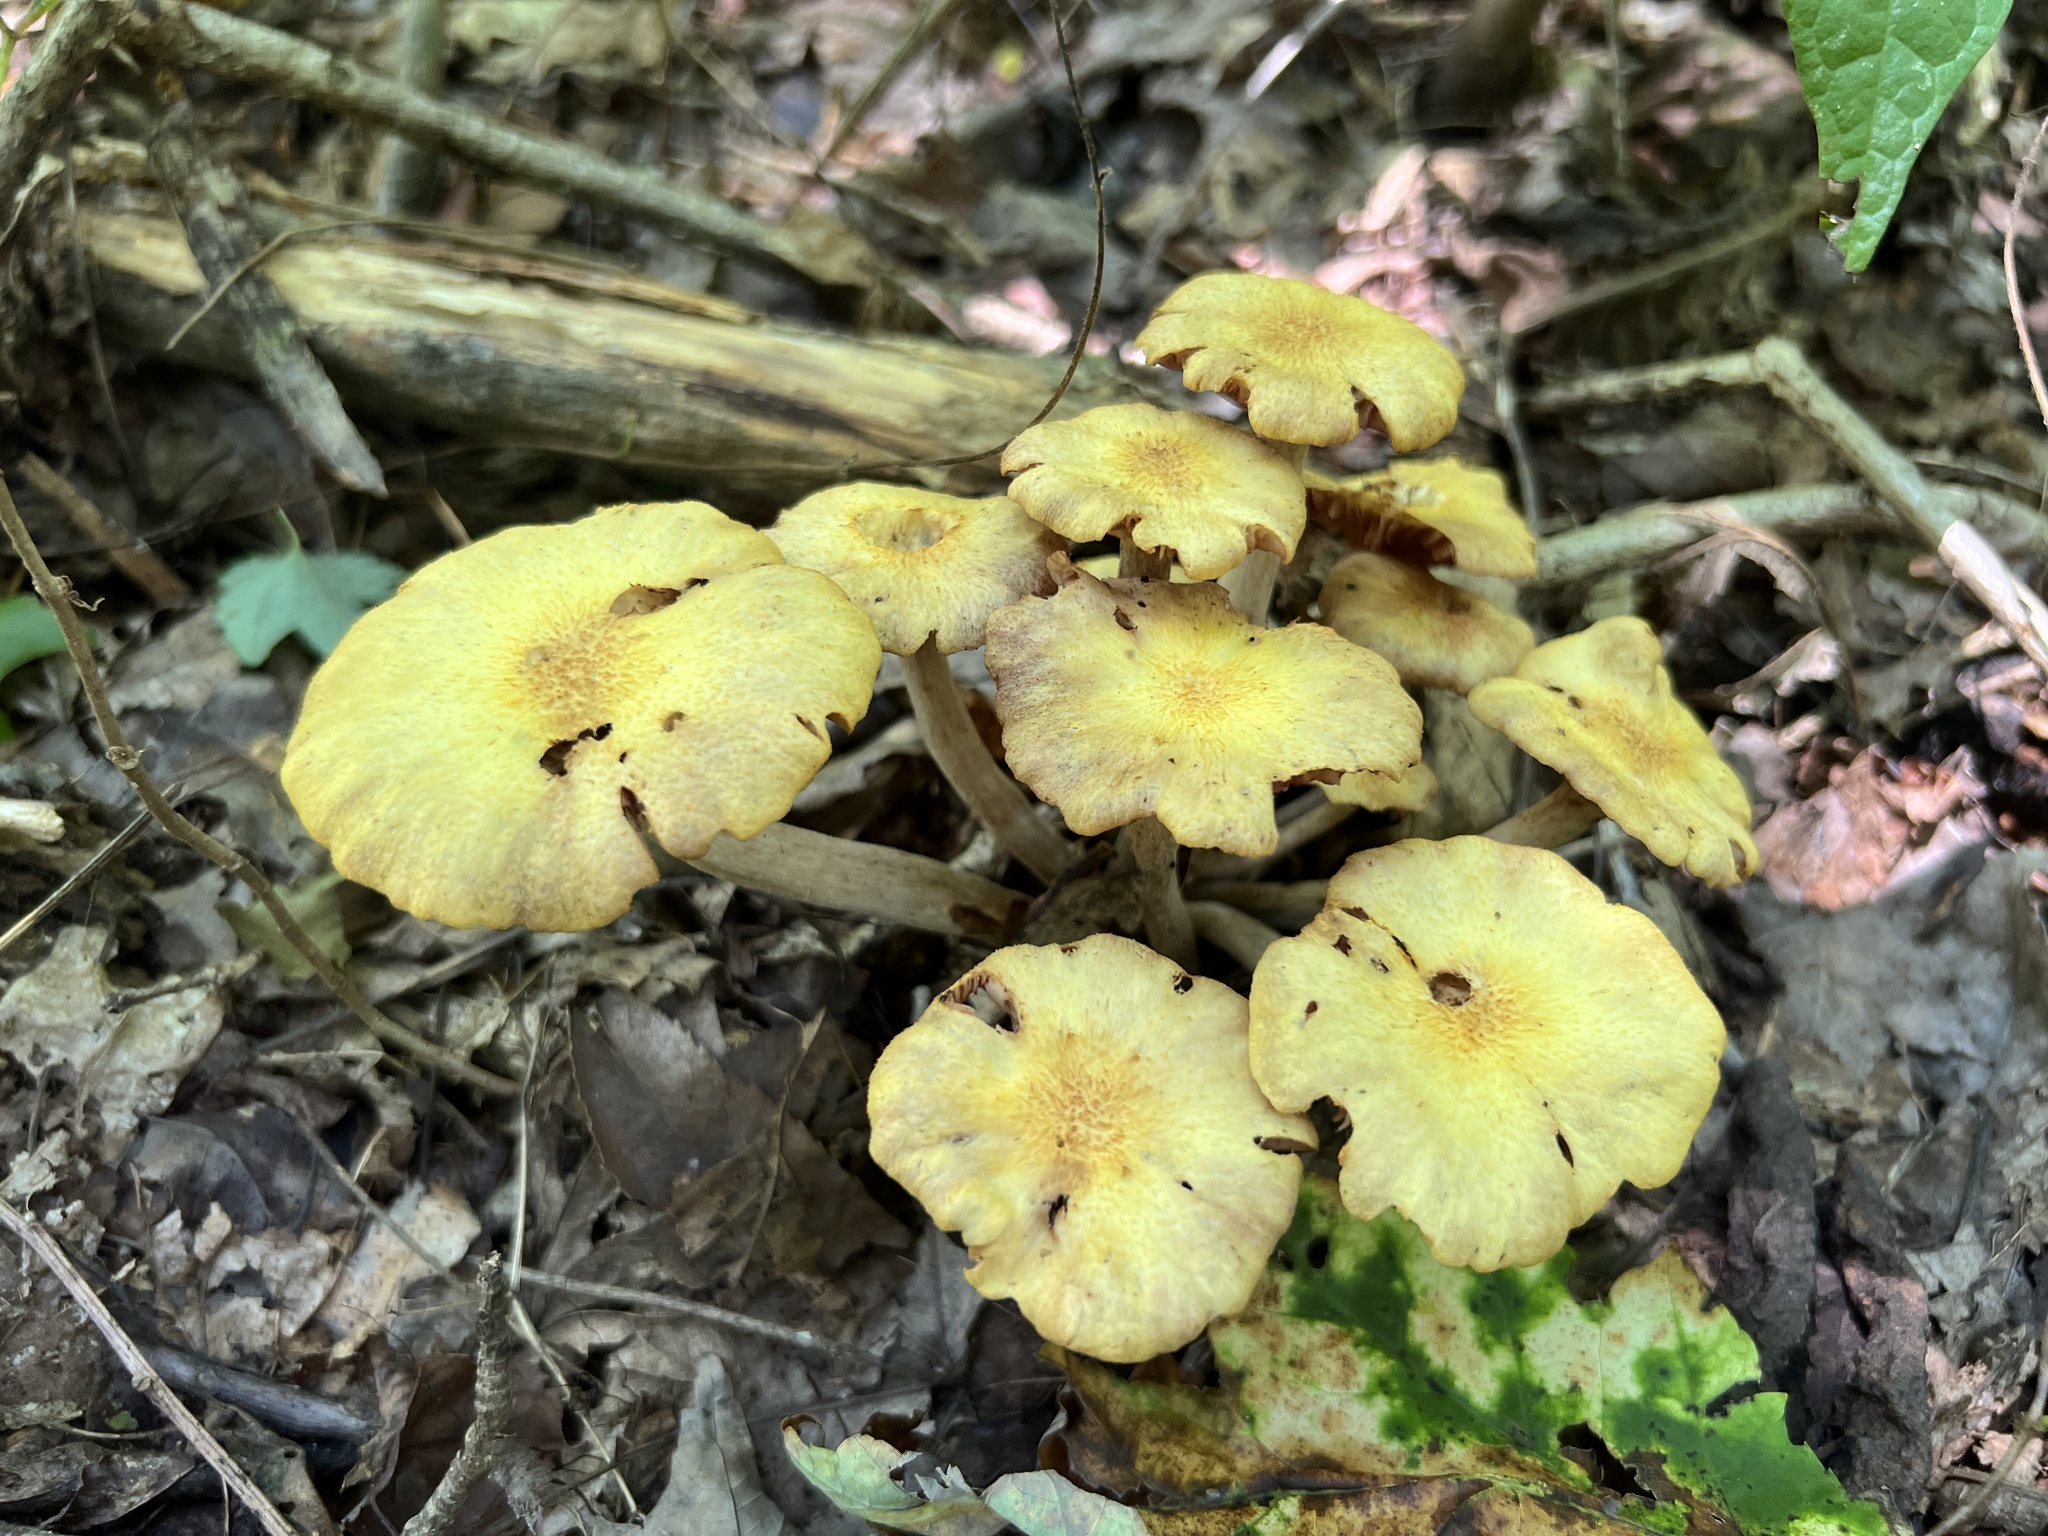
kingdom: Fungi
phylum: Basidiomycota
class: Agaricomycetes
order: Agaricales
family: Physalacriaceae
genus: Desarmillaria
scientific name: Desarmillaria caespitosa
